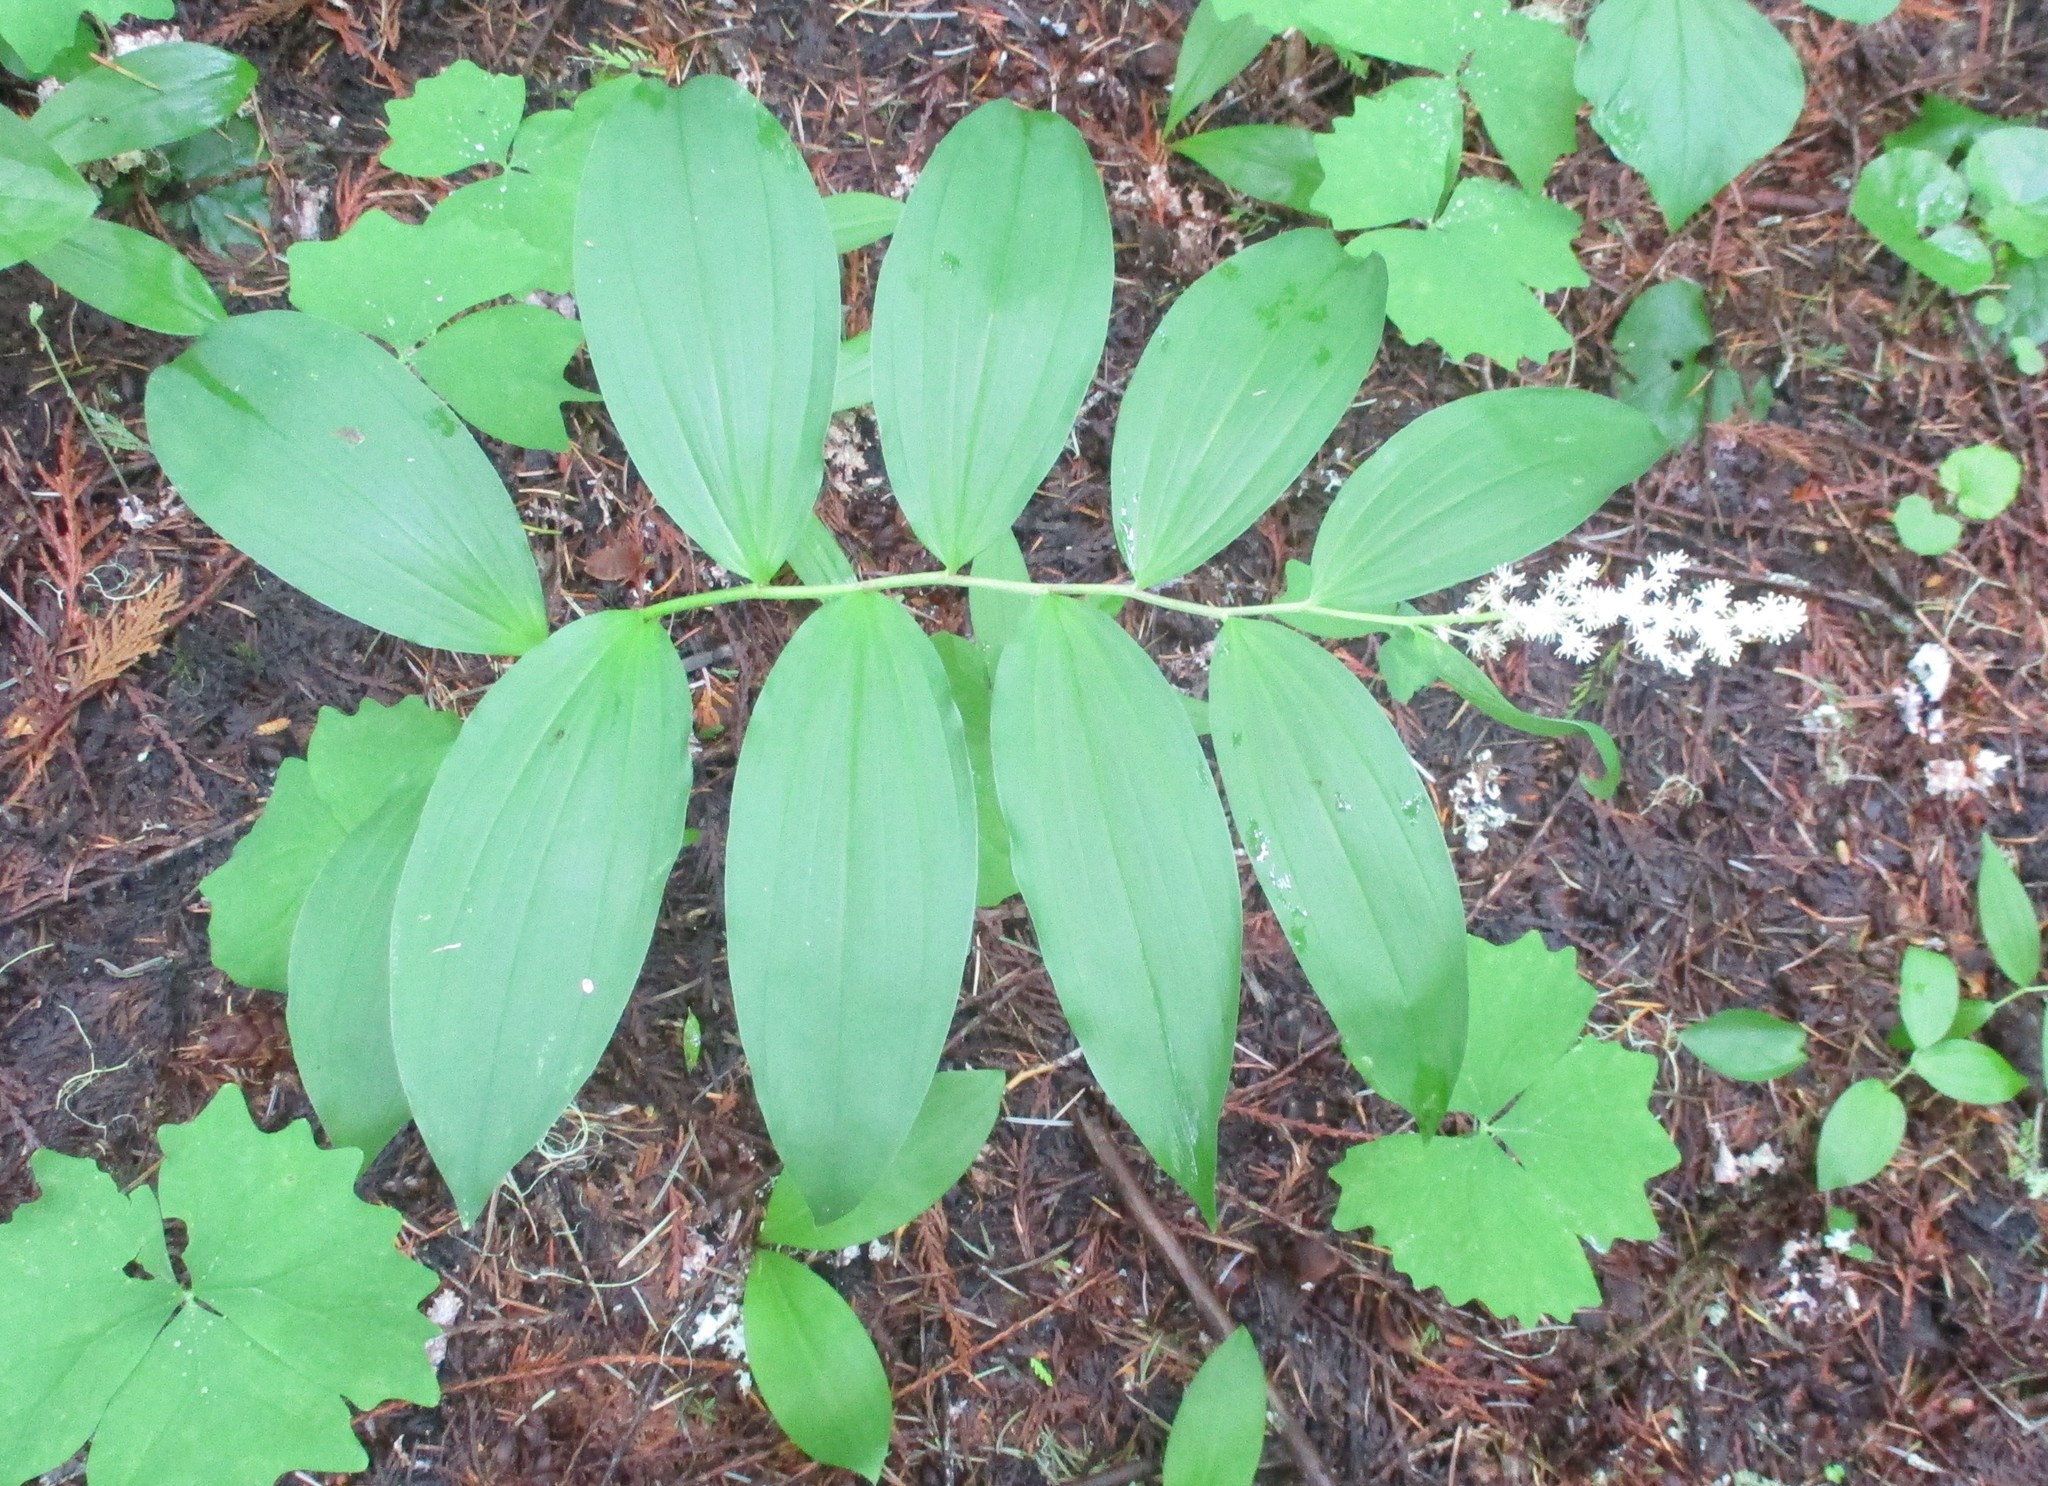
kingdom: Plantae
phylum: Tracheophyta
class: Liliopsida
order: Asparagales
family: Asparagaceae
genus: Maianthemum
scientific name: Maianthemum racemosum
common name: False spikenard
